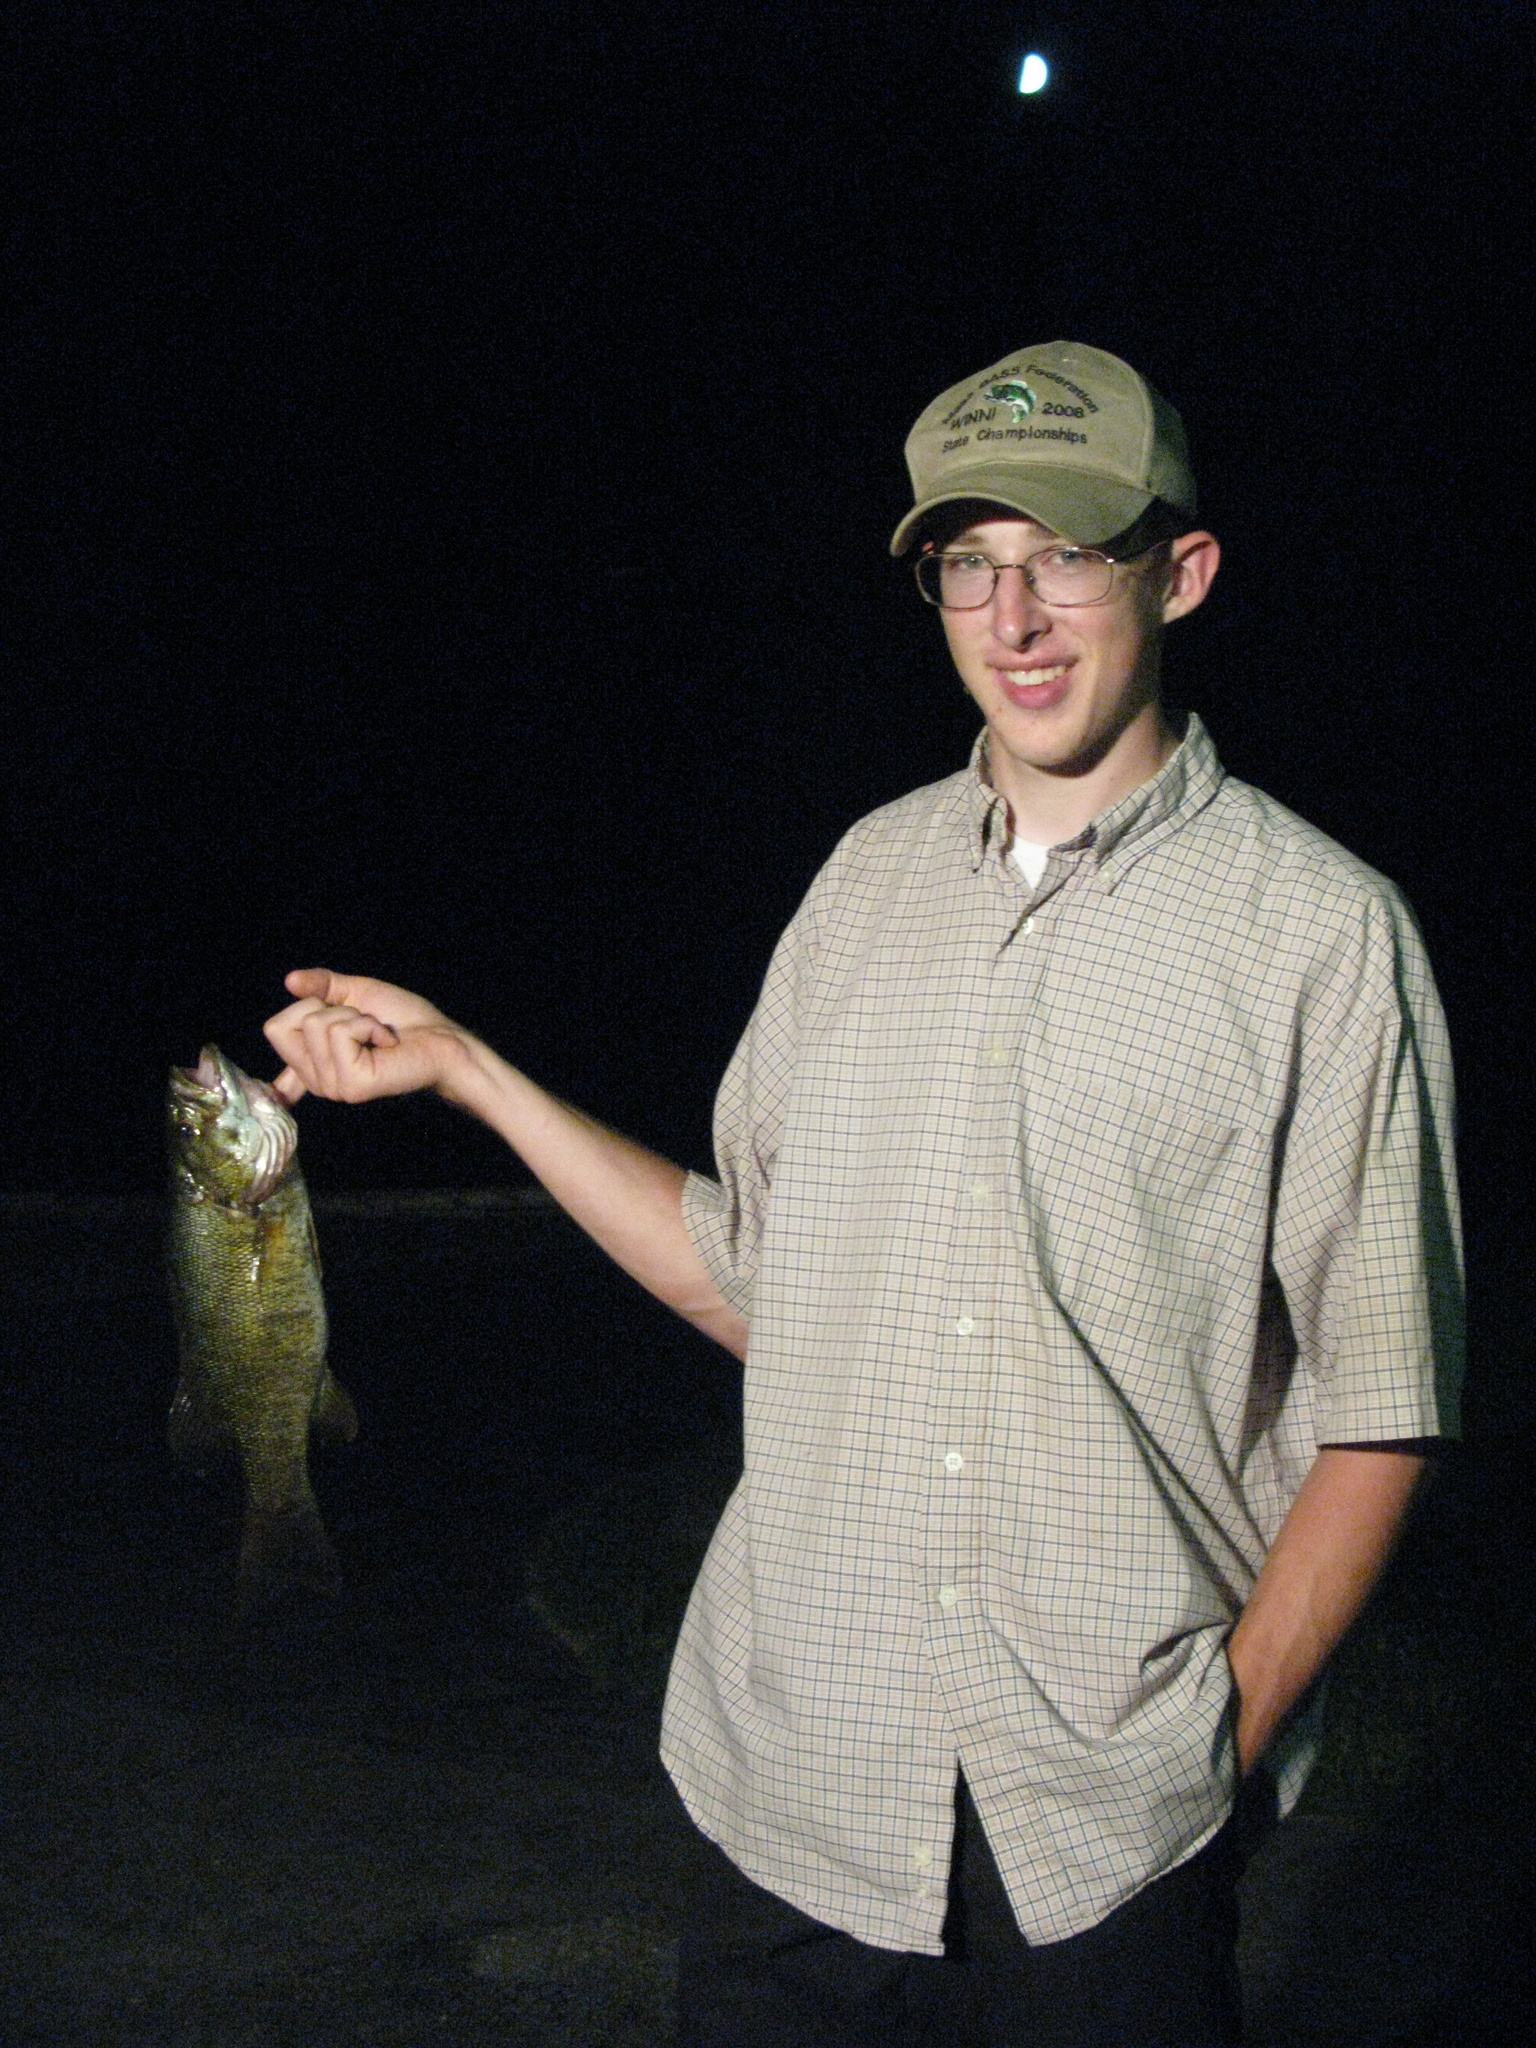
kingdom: Animalia
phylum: Chordata
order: Perciformes
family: Centrarchidae
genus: Micropterus
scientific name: Micropterus dolomieu
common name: Smallmouth bass
